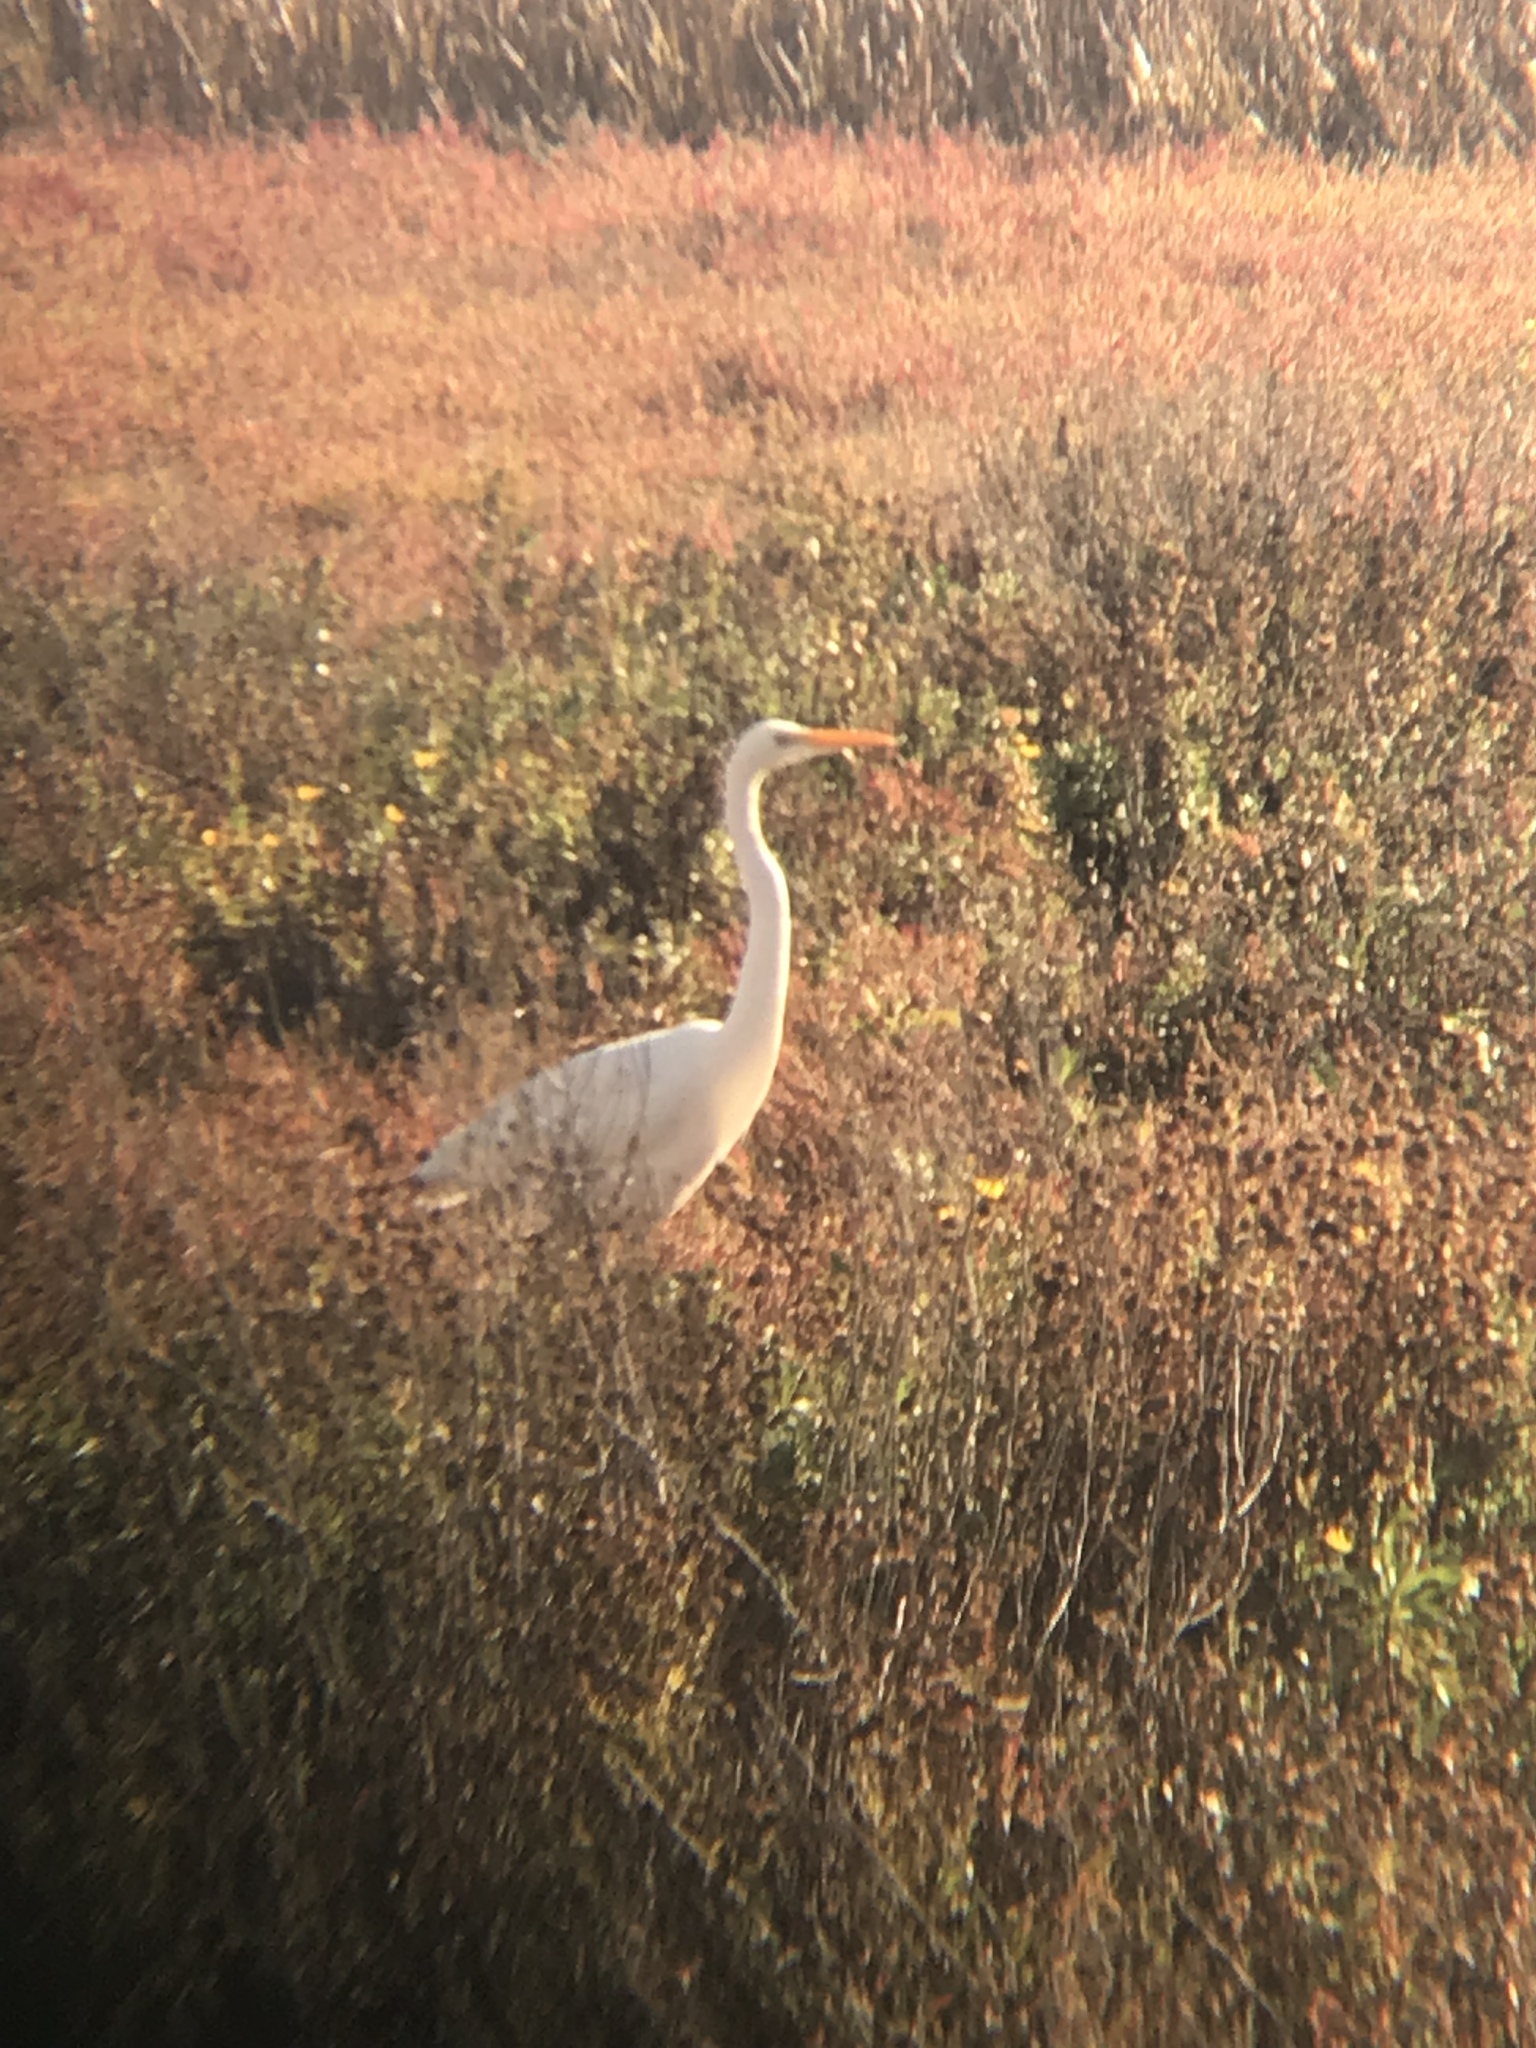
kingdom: Animalia
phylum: Chordata
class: Aves
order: Pelecaniformes
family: Ardeidae
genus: Ardea
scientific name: Ardea alba
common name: Great egret
